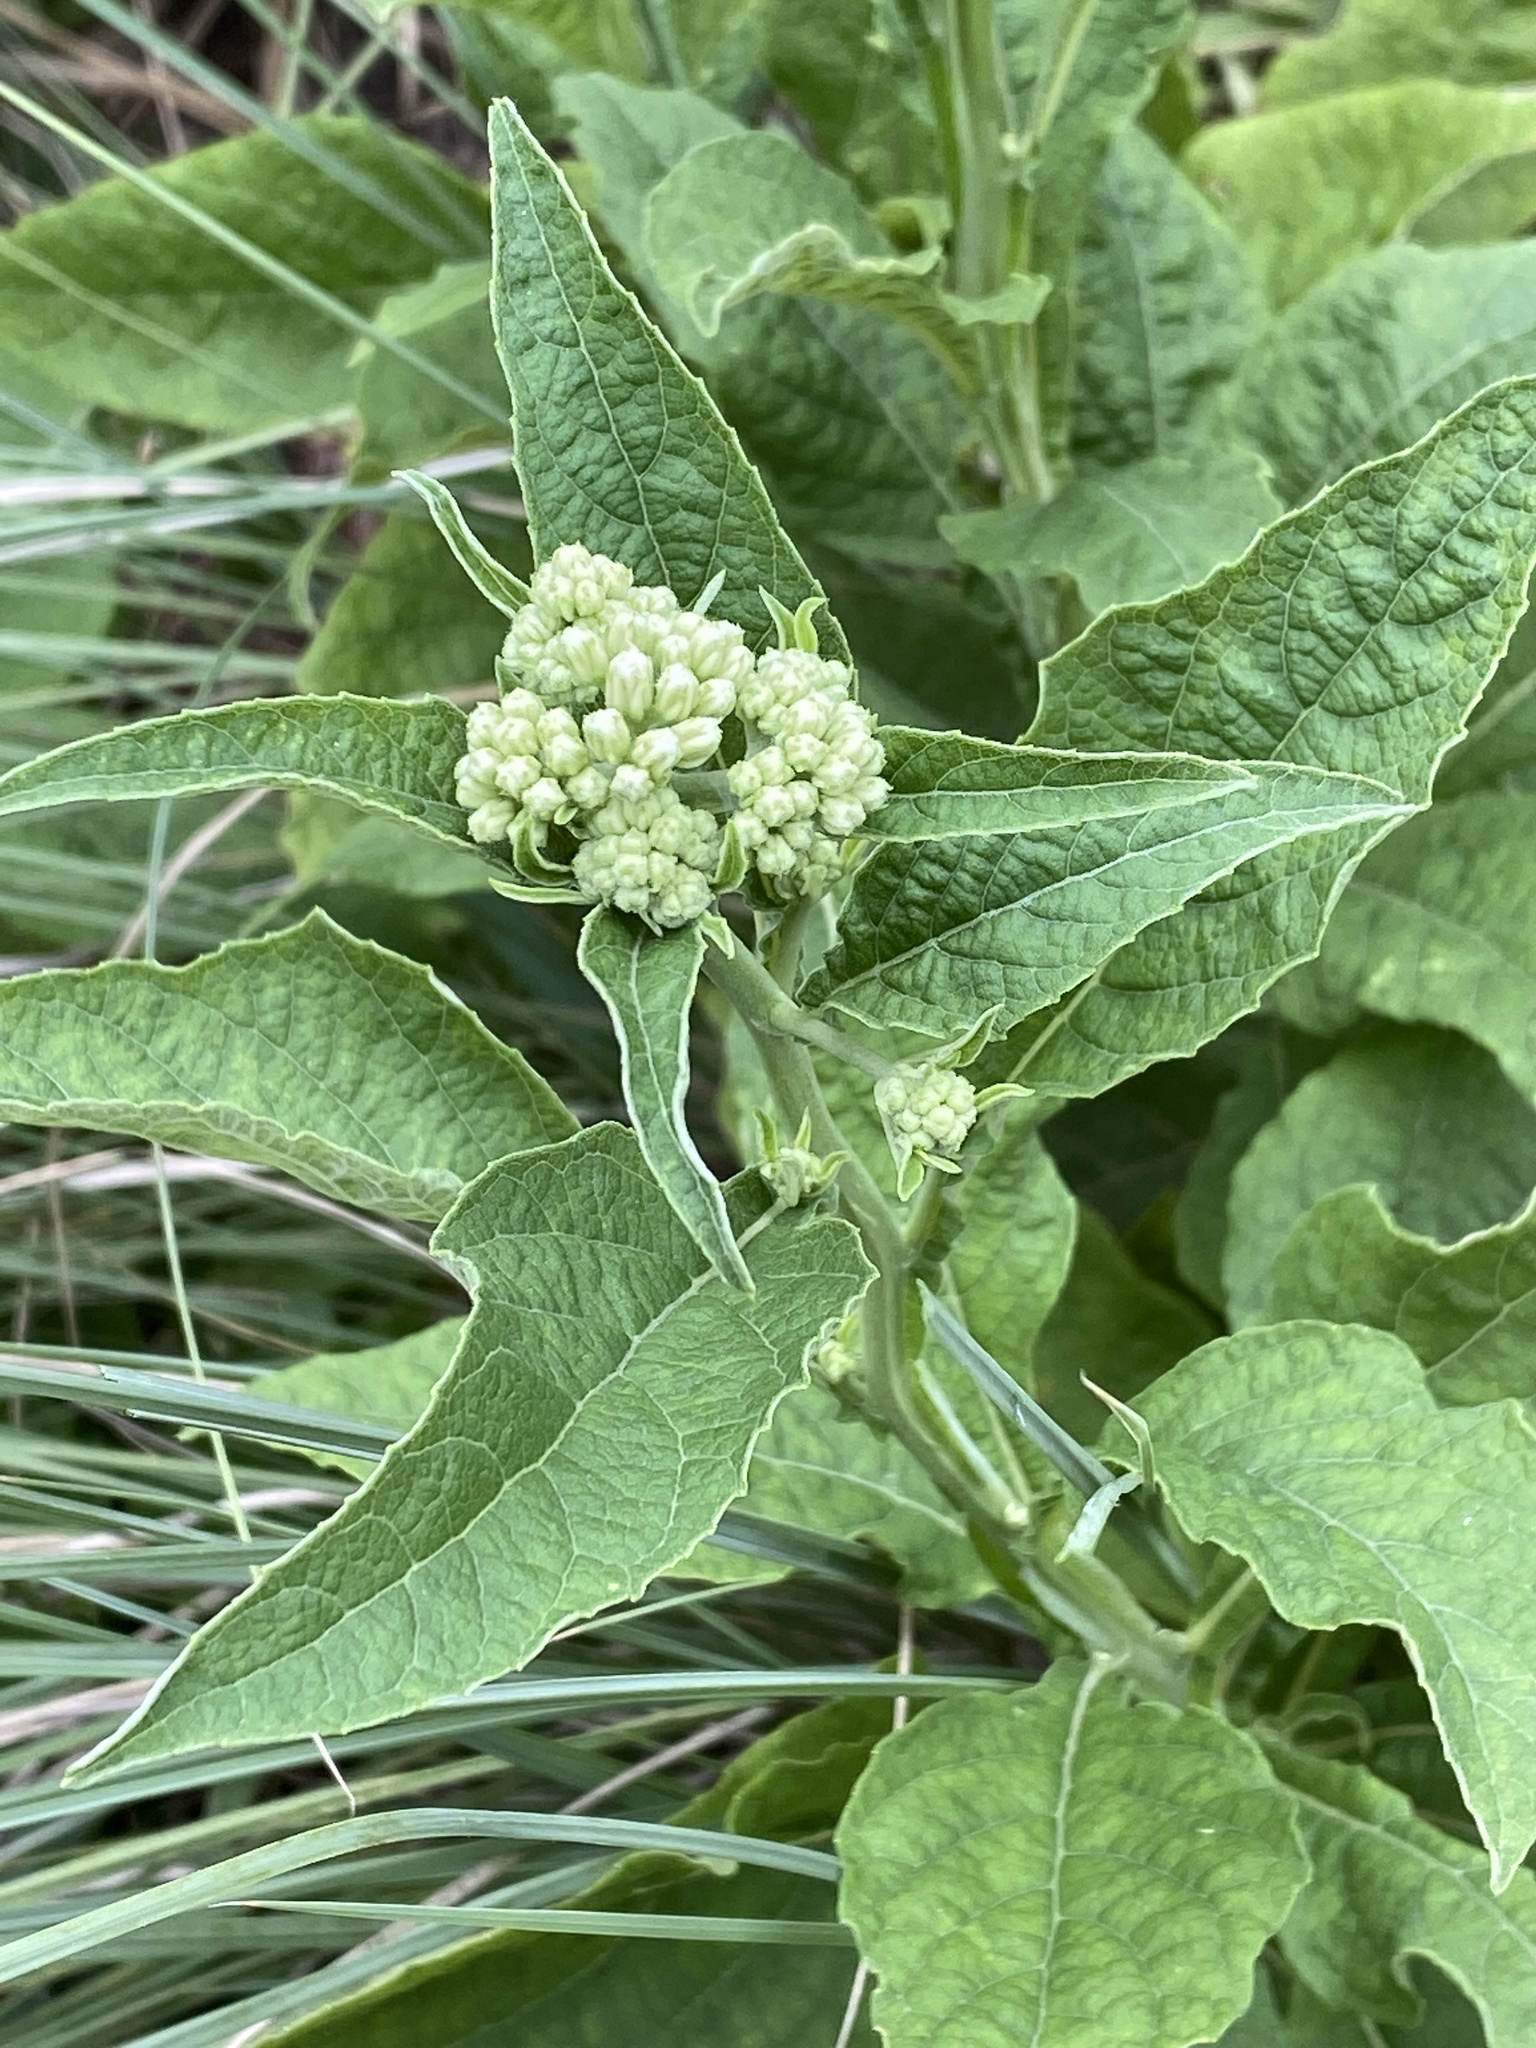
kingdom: Plantae
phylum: Tracheophyta
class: Magnoliopsida
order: Asterales
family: Asteraceae
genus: Verbesina
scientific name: Verbesina virginica
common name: Frostweed
